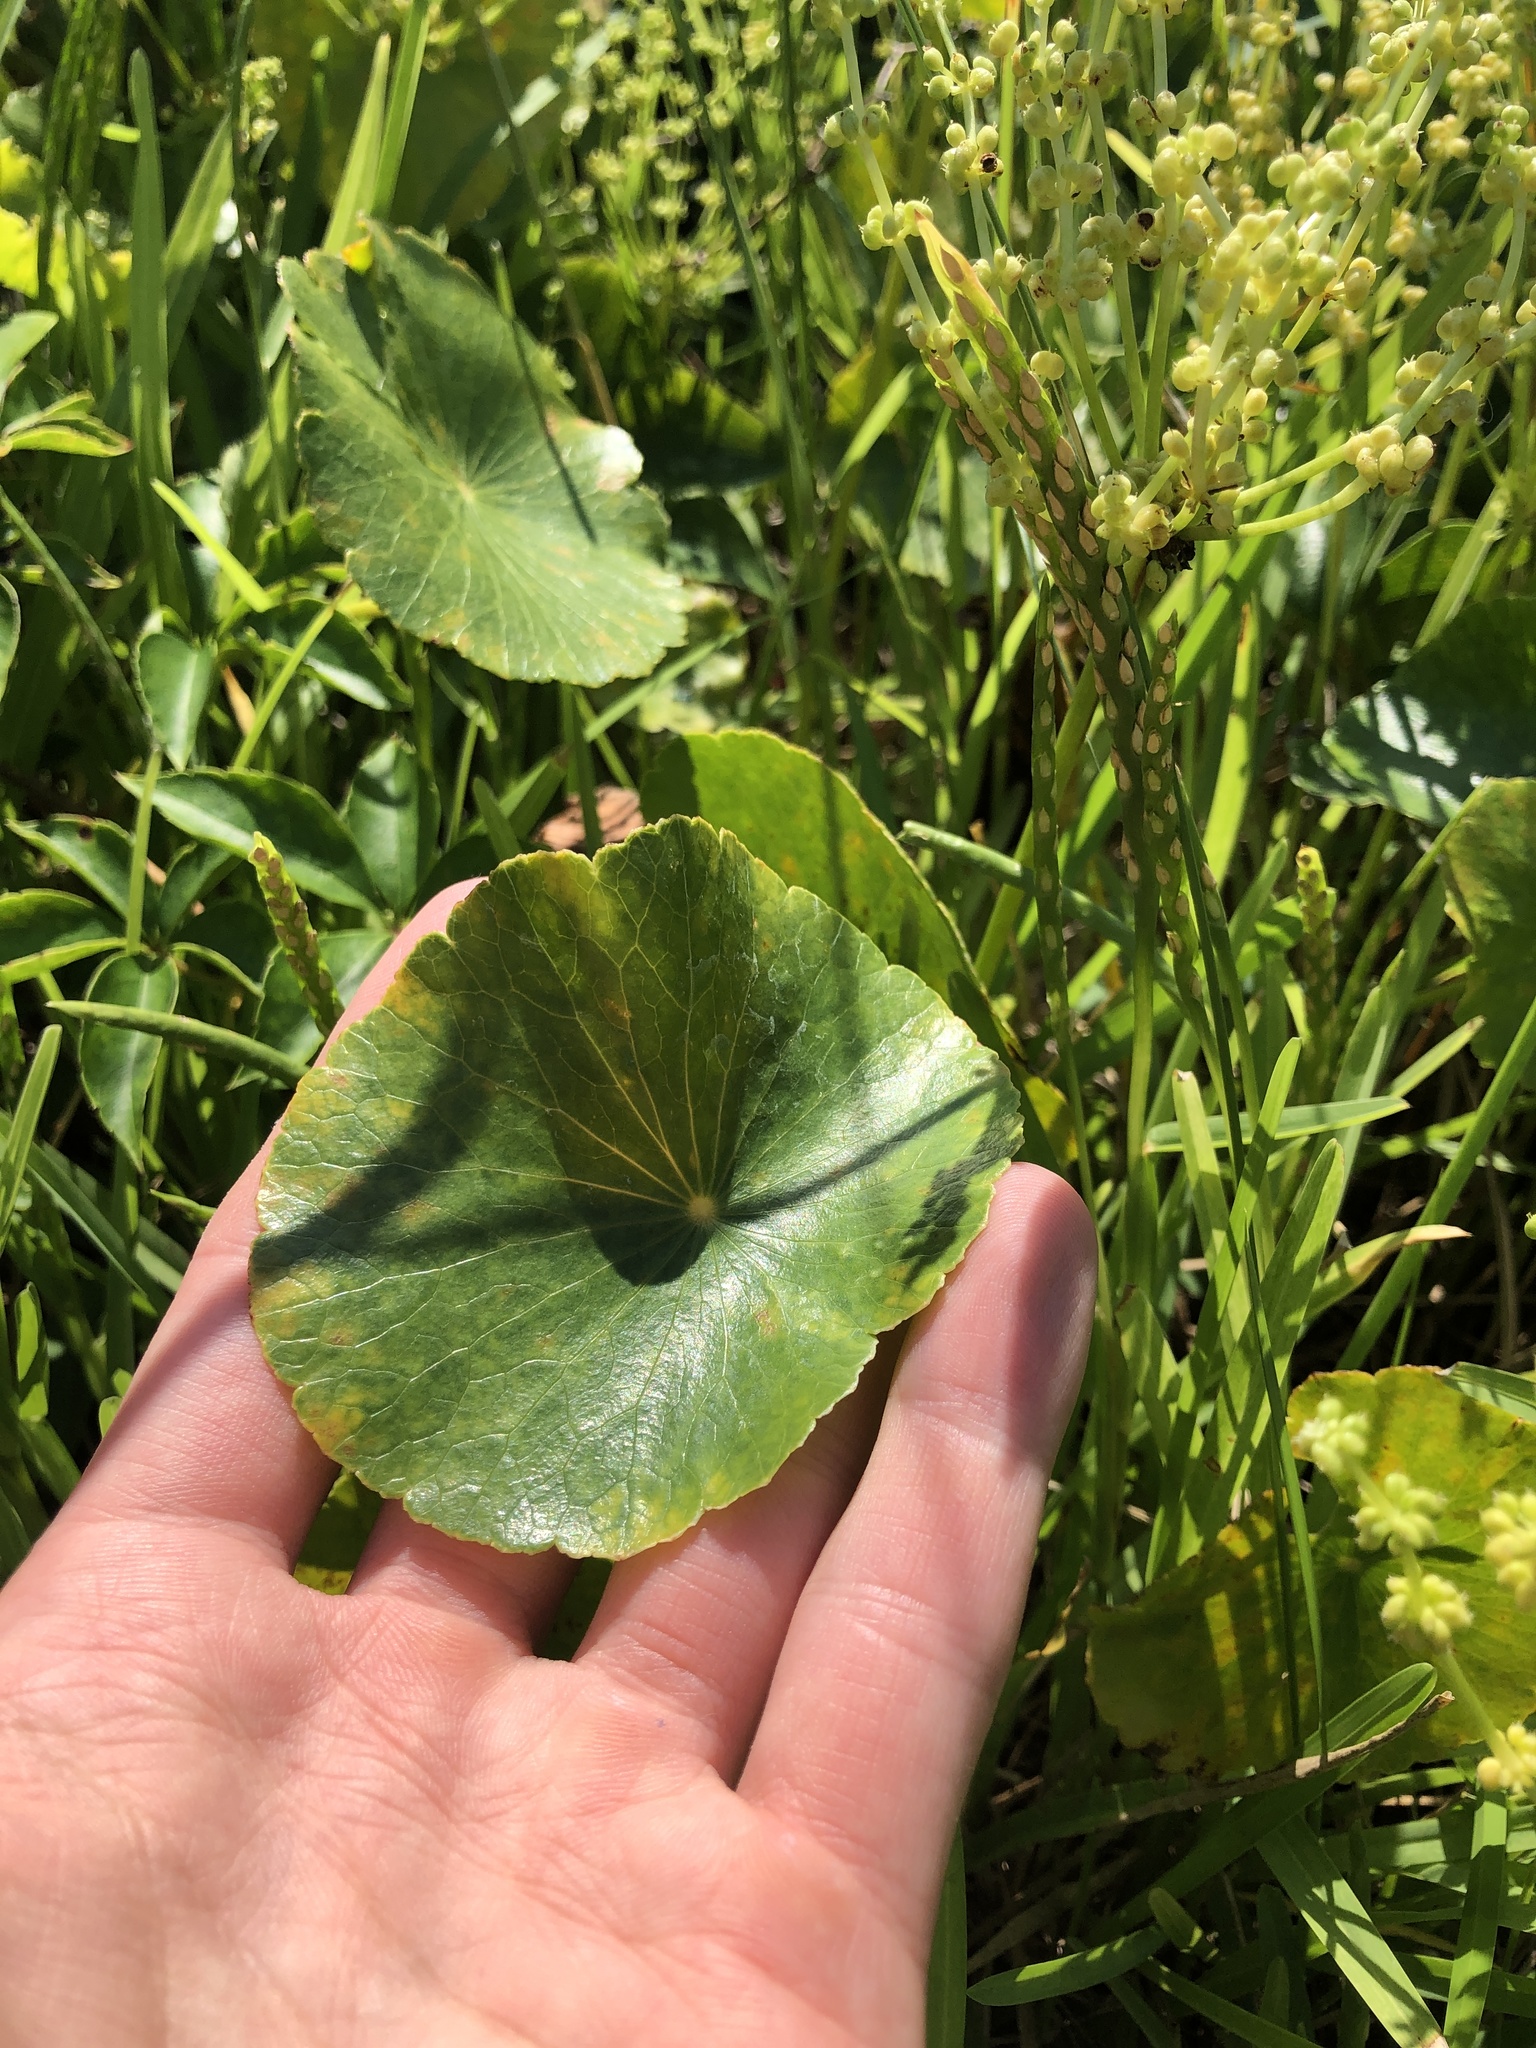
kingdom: Plantae
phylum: Tracheophyta
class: Magnoliopsida
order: Apiales
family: Araliaceae
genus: Hydrocotyle
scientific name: Hydrocotyle bonariensis
